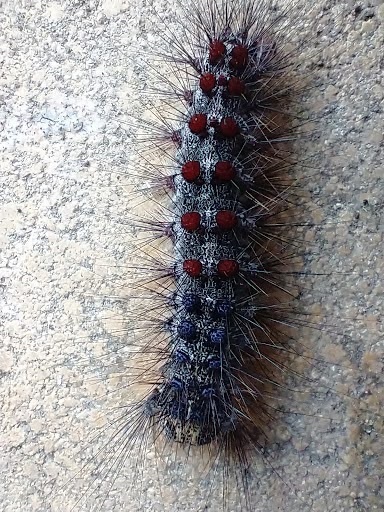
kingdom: Animalia
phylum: Arthropoda
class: Insecta
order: Lepidoptera
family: Erebidae
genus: Lymantria
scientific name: Lymantria dispar
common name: Gypsy moth
